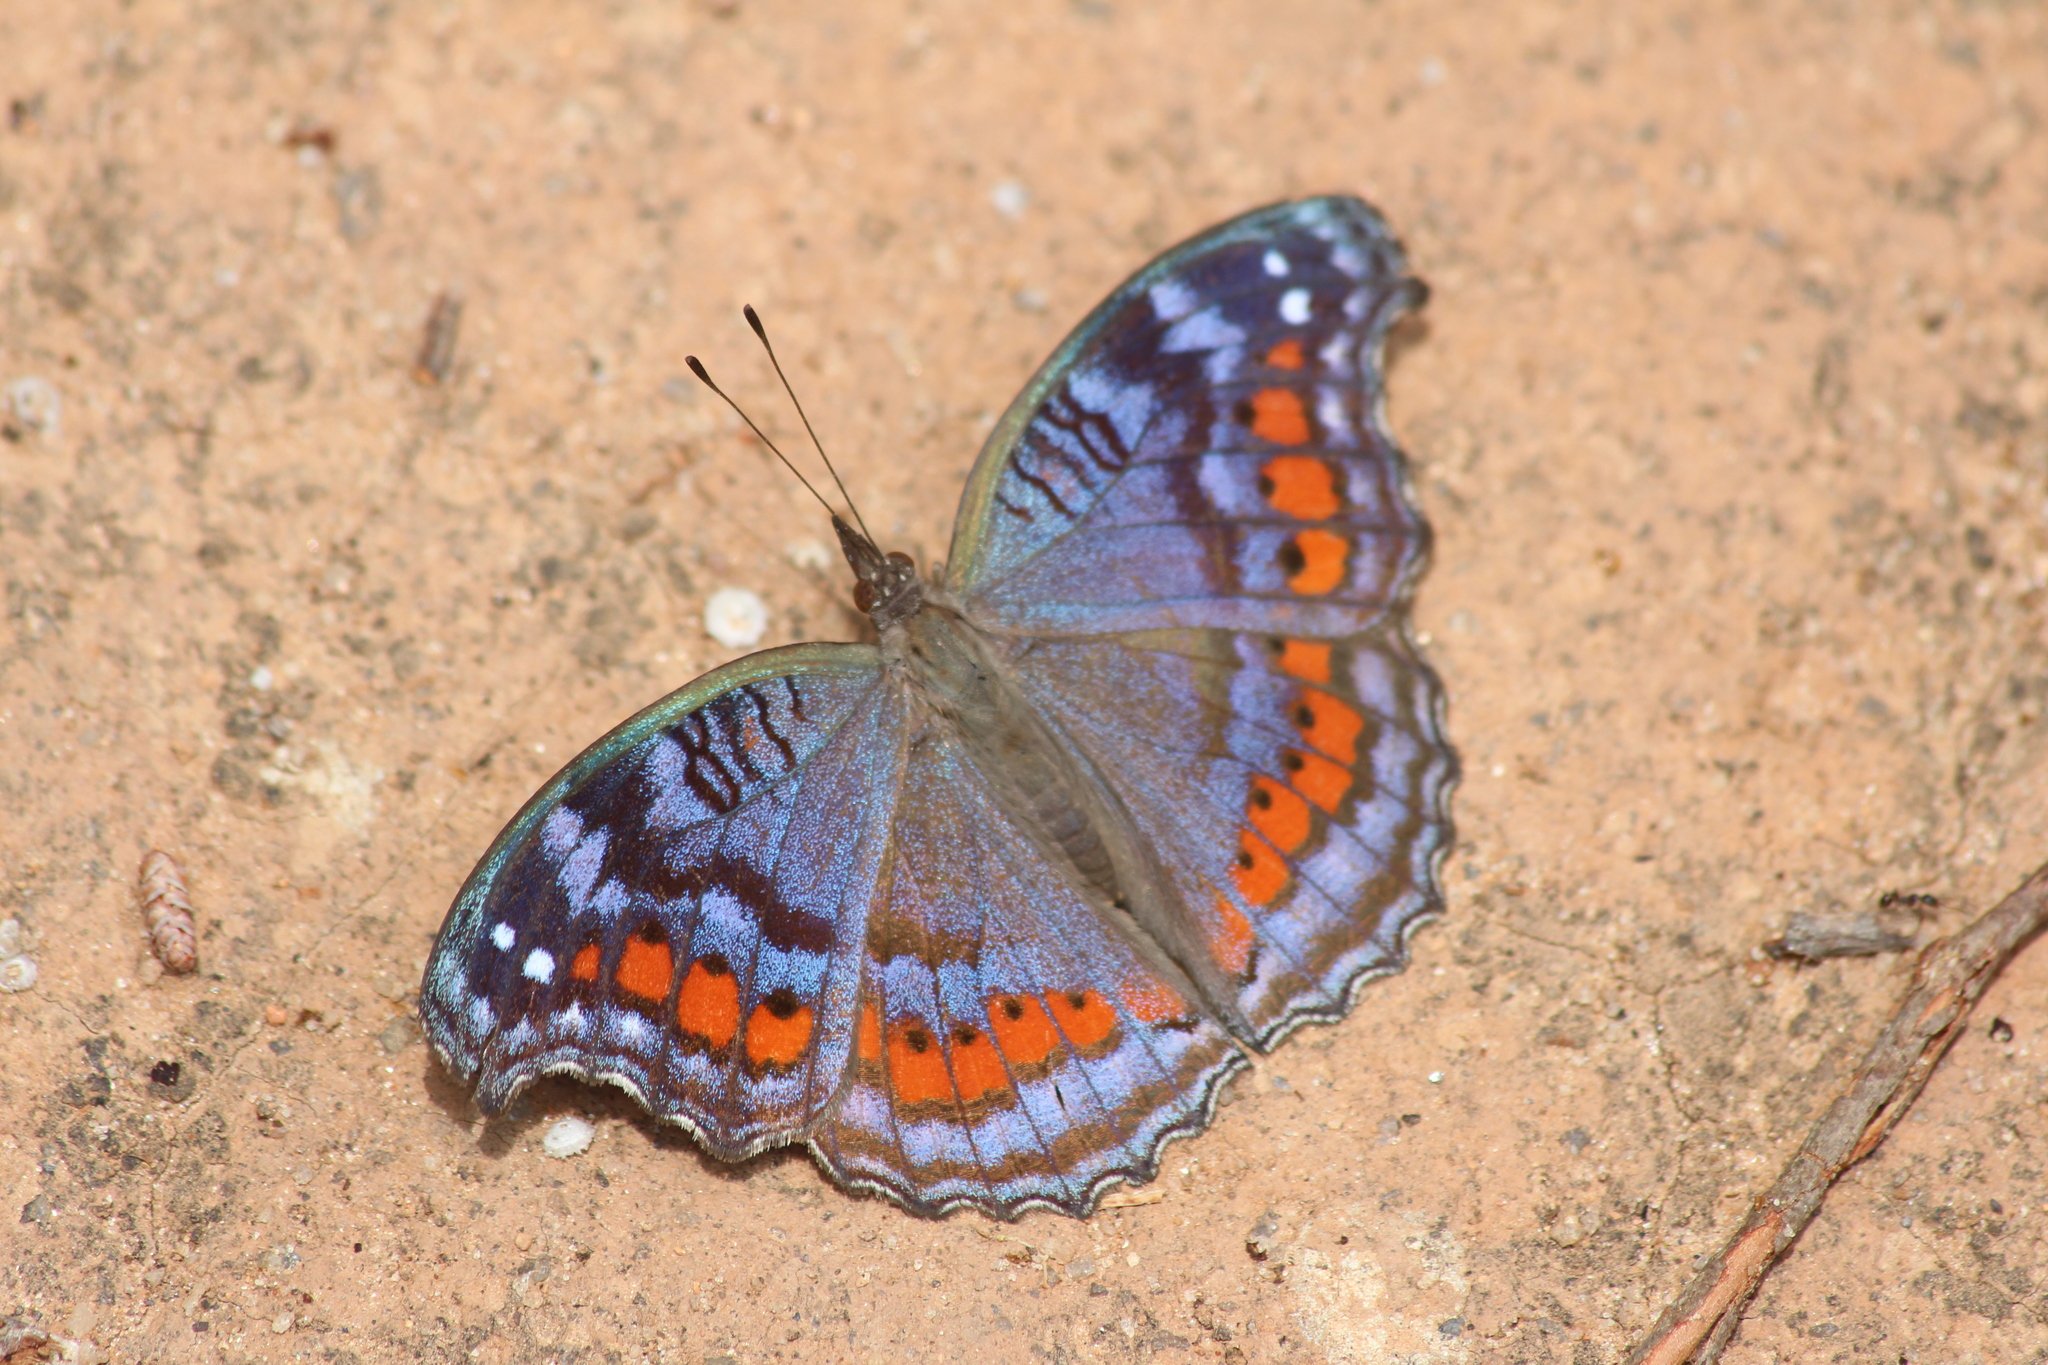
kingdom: Animalia
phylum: Arthropoda
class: Insecta
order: Lepidoptera
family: Nymphalidae
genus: Precis
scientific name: Precis octavia
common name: Gaudy commodore
